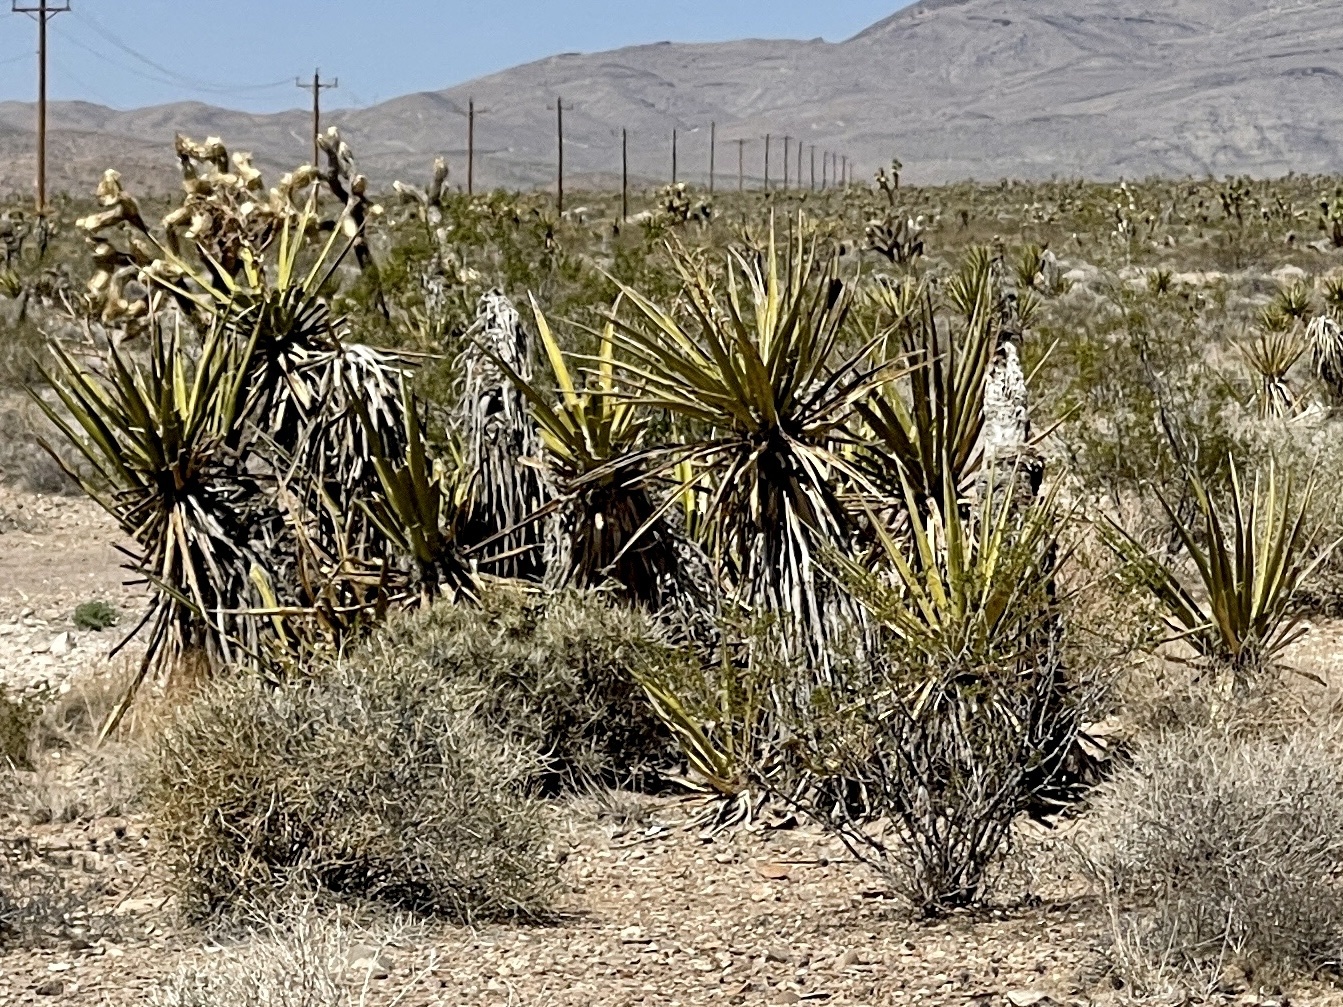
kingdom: Plantae
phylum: Tracheophyta
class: Liliopsida
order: Asparagales
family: Asparagaceae
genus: Yucca
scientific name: Yucca schidigera
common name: Mojave yucca
